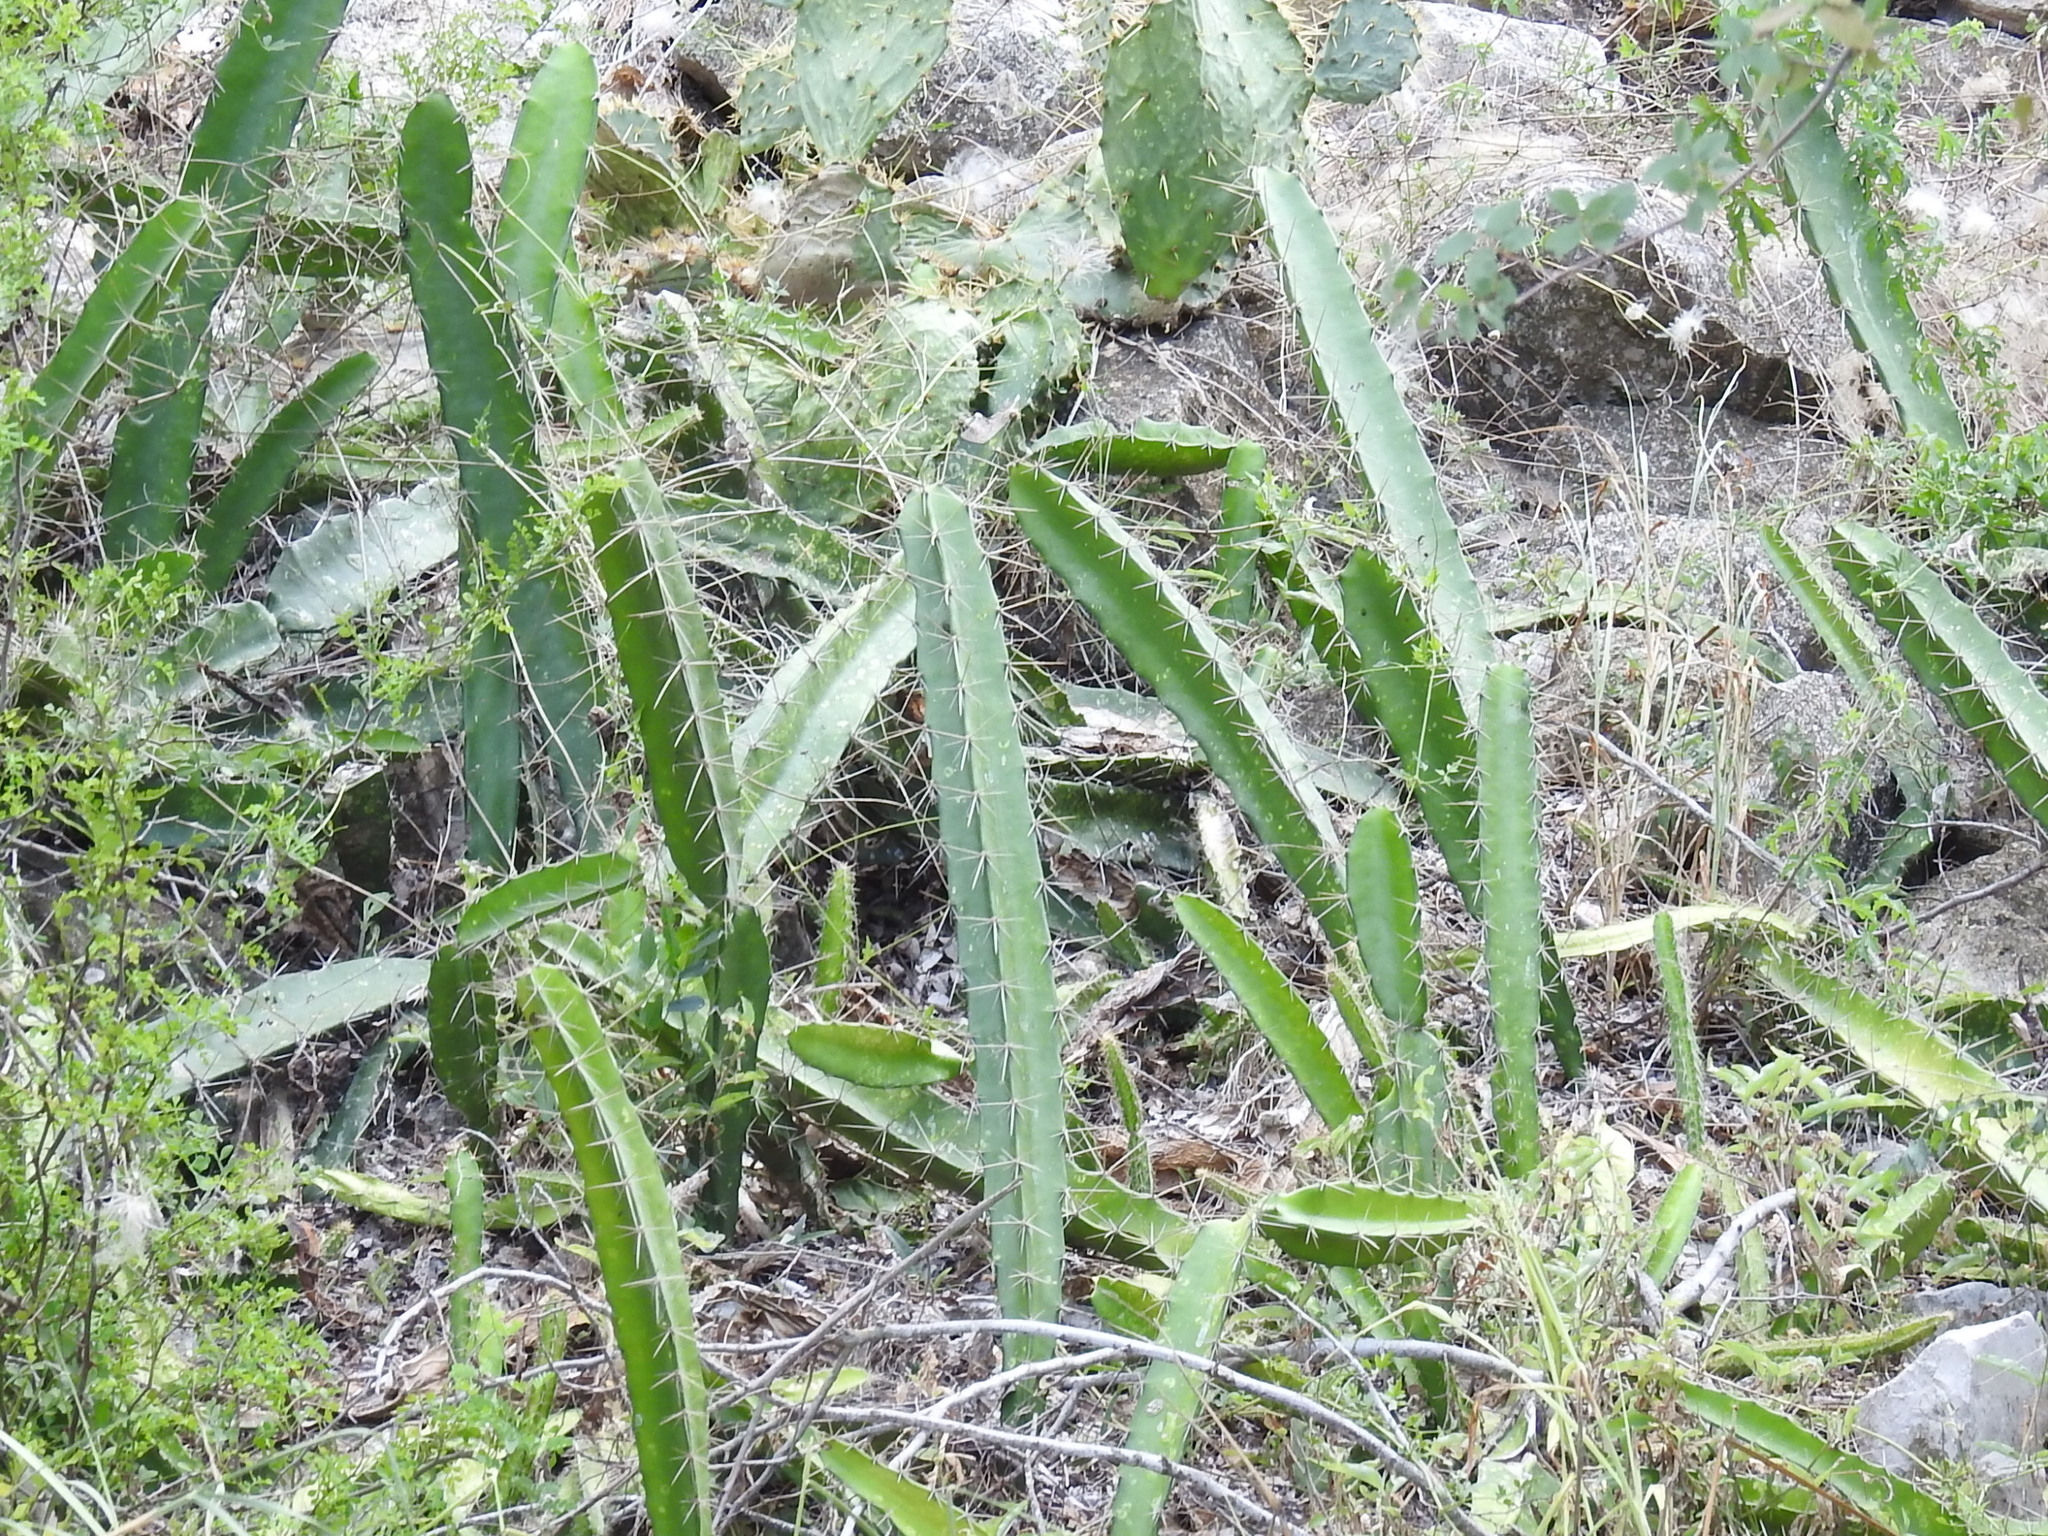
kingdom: Plantae
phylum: Tracheophyta
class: Magnoliopsida
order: Caryophyllales
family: Cactaceae
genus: Acanthocereus
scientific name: Acanthocereus tetragonus
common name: Triangle cactus
